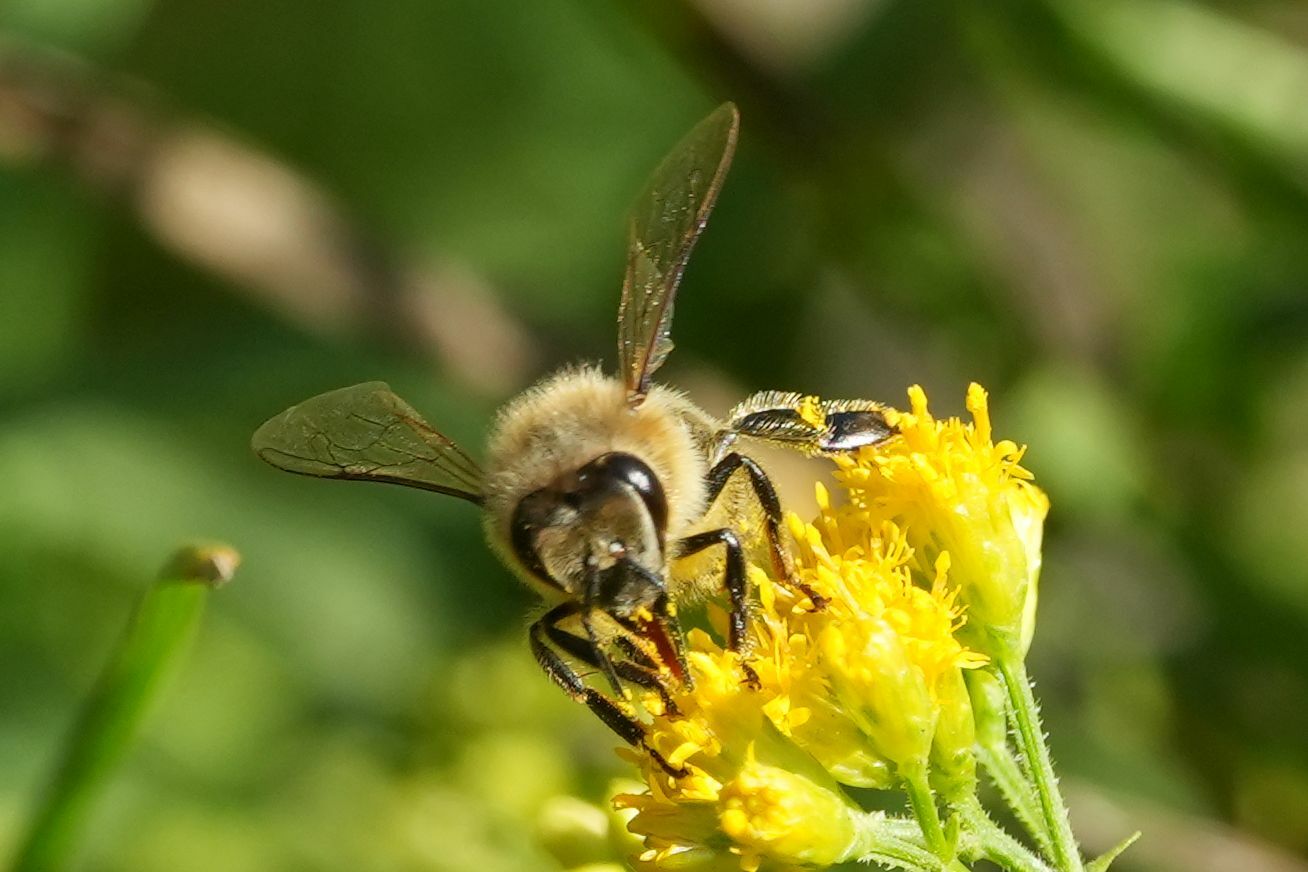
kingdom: Animalia
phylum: Arthropoda
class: Insecta
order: Hymenoptera
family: Apidae
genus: Apis
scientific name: Apis mellifera
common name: Honey bee
